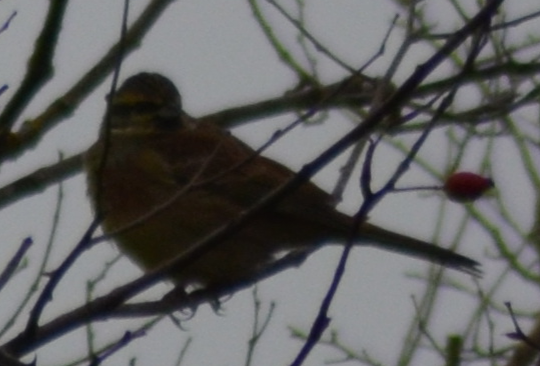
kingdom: Animalia
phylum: Chordata
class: Aves
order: Passeriformes
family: Emberizidae
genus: Emberiza
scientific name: Emberiza cirlus
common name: Cirl bunting
